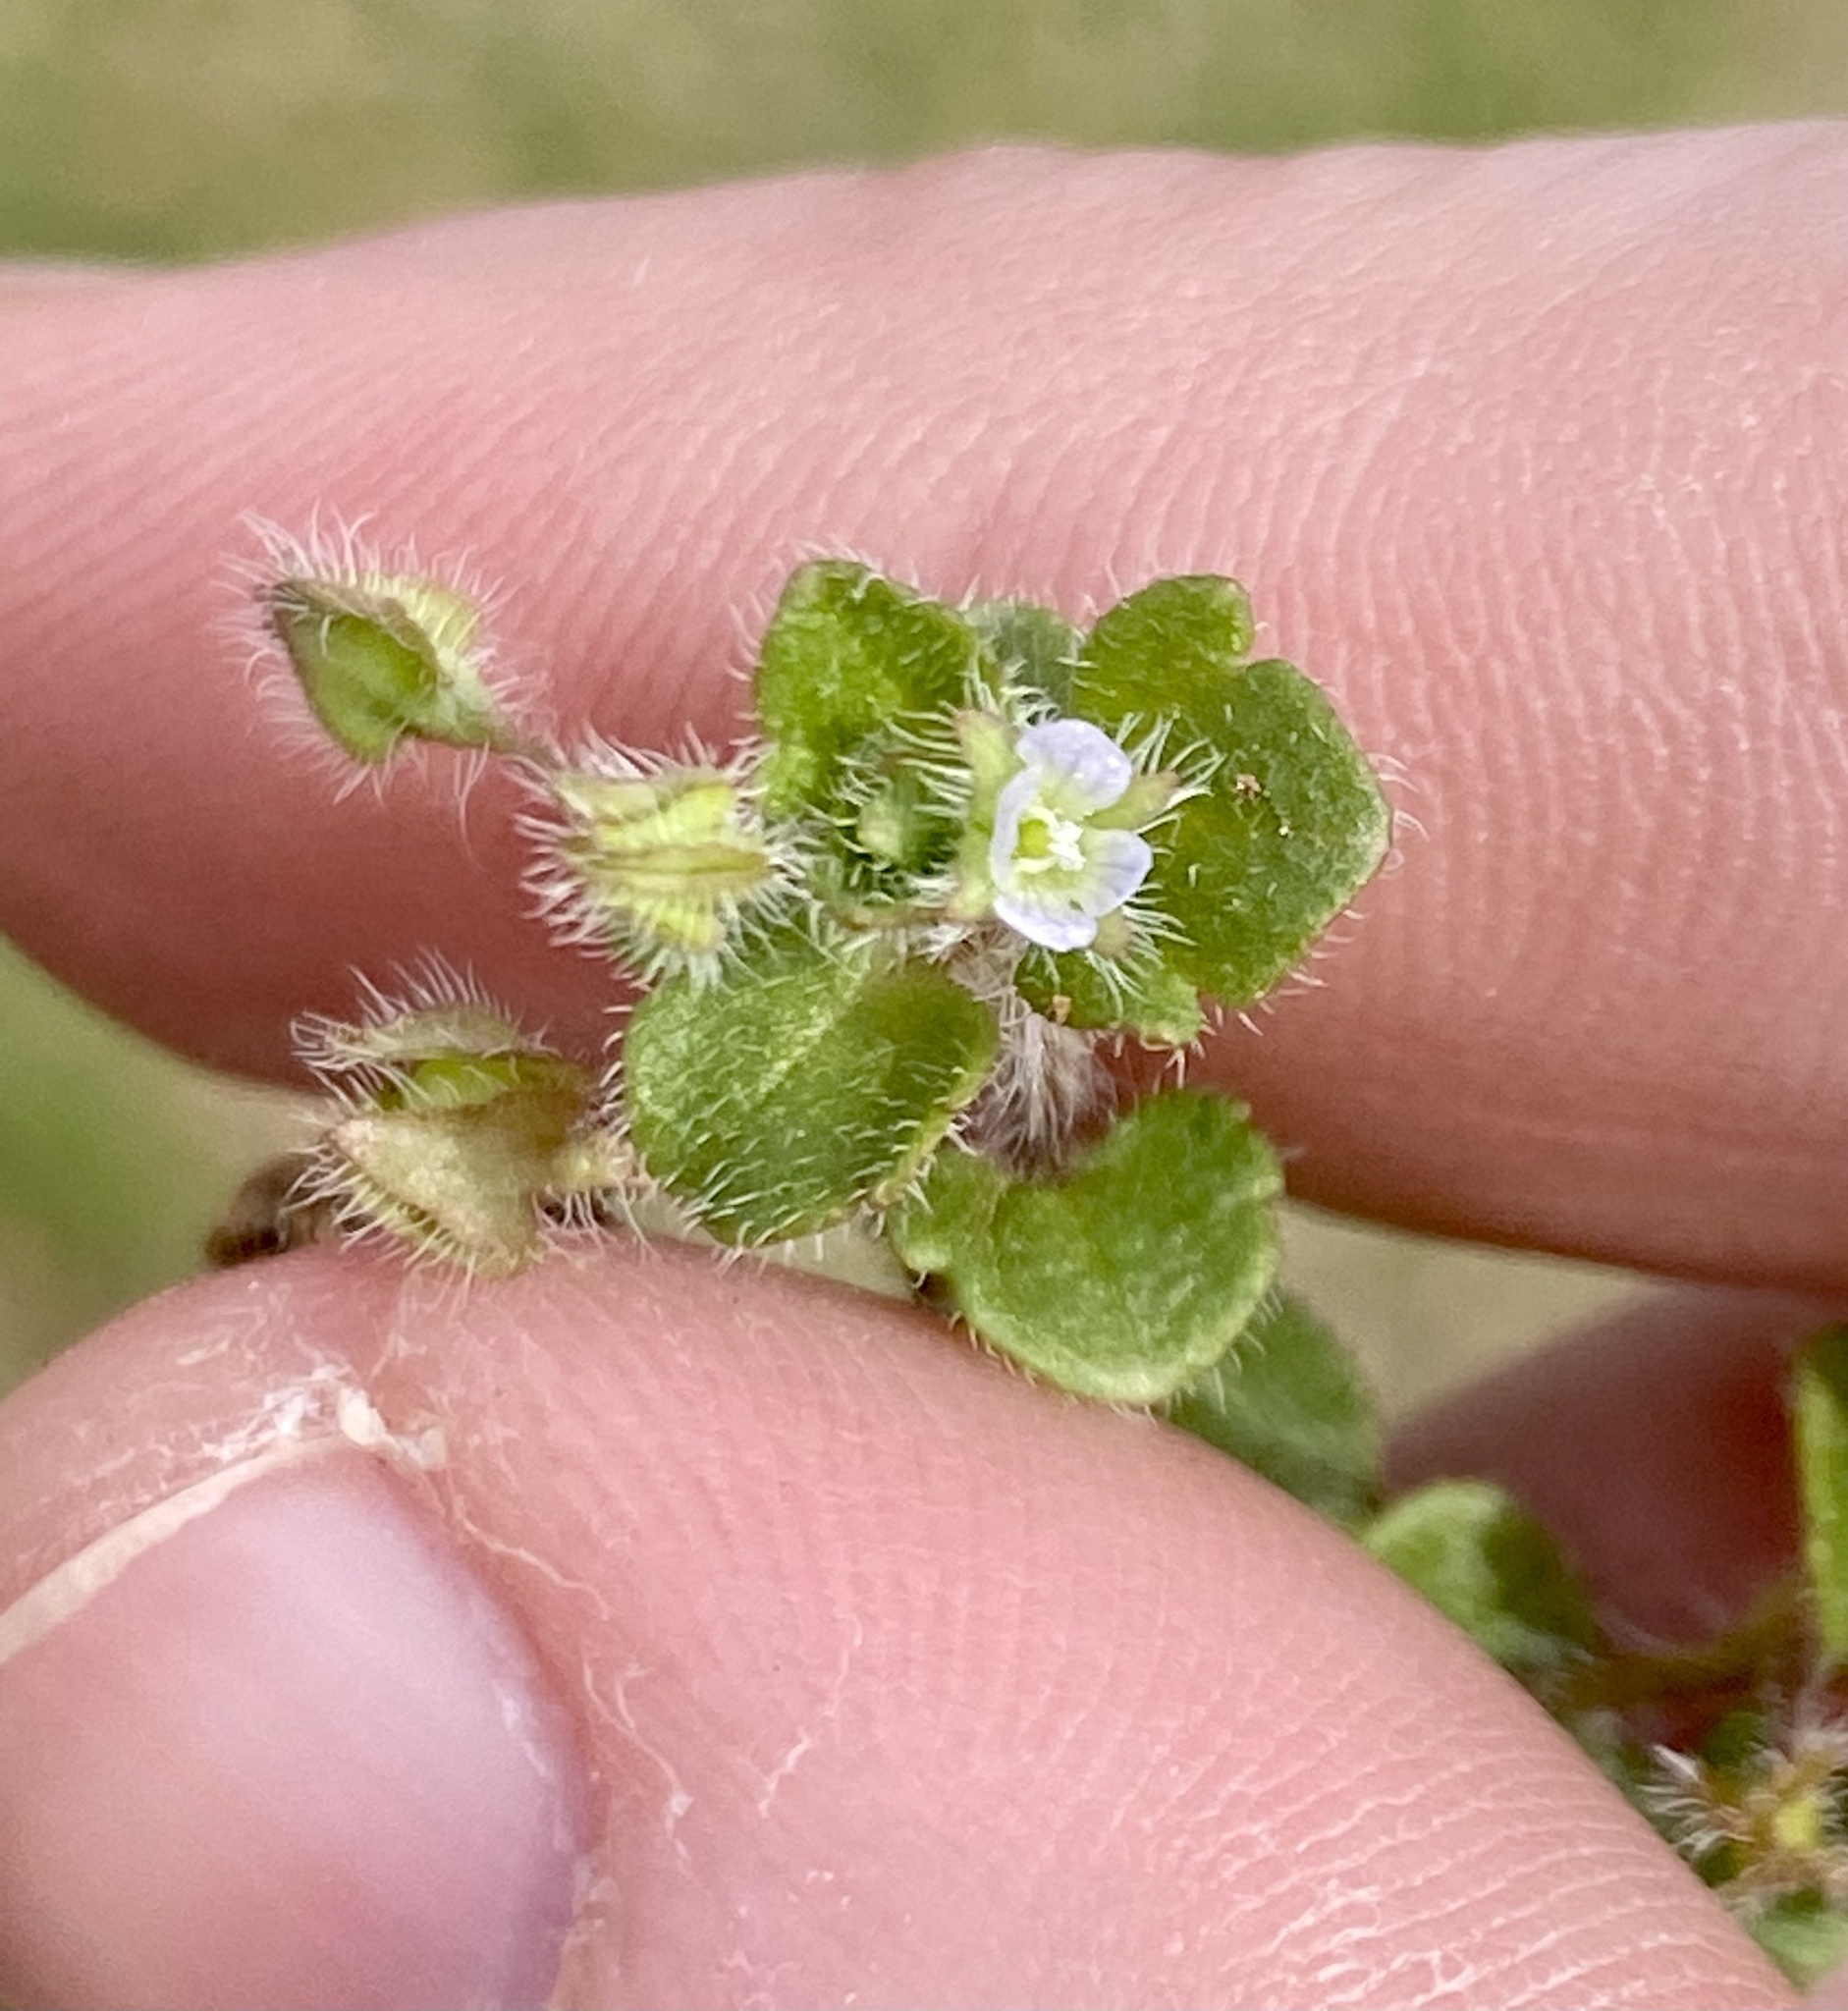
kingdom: Plantae
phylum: Tracheophyta
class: Magnoliopsida
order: Lamiales
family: Plantaginaceae
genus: Veronica
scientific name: Veronica sublobata
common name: False ivy-leaved speedwell
